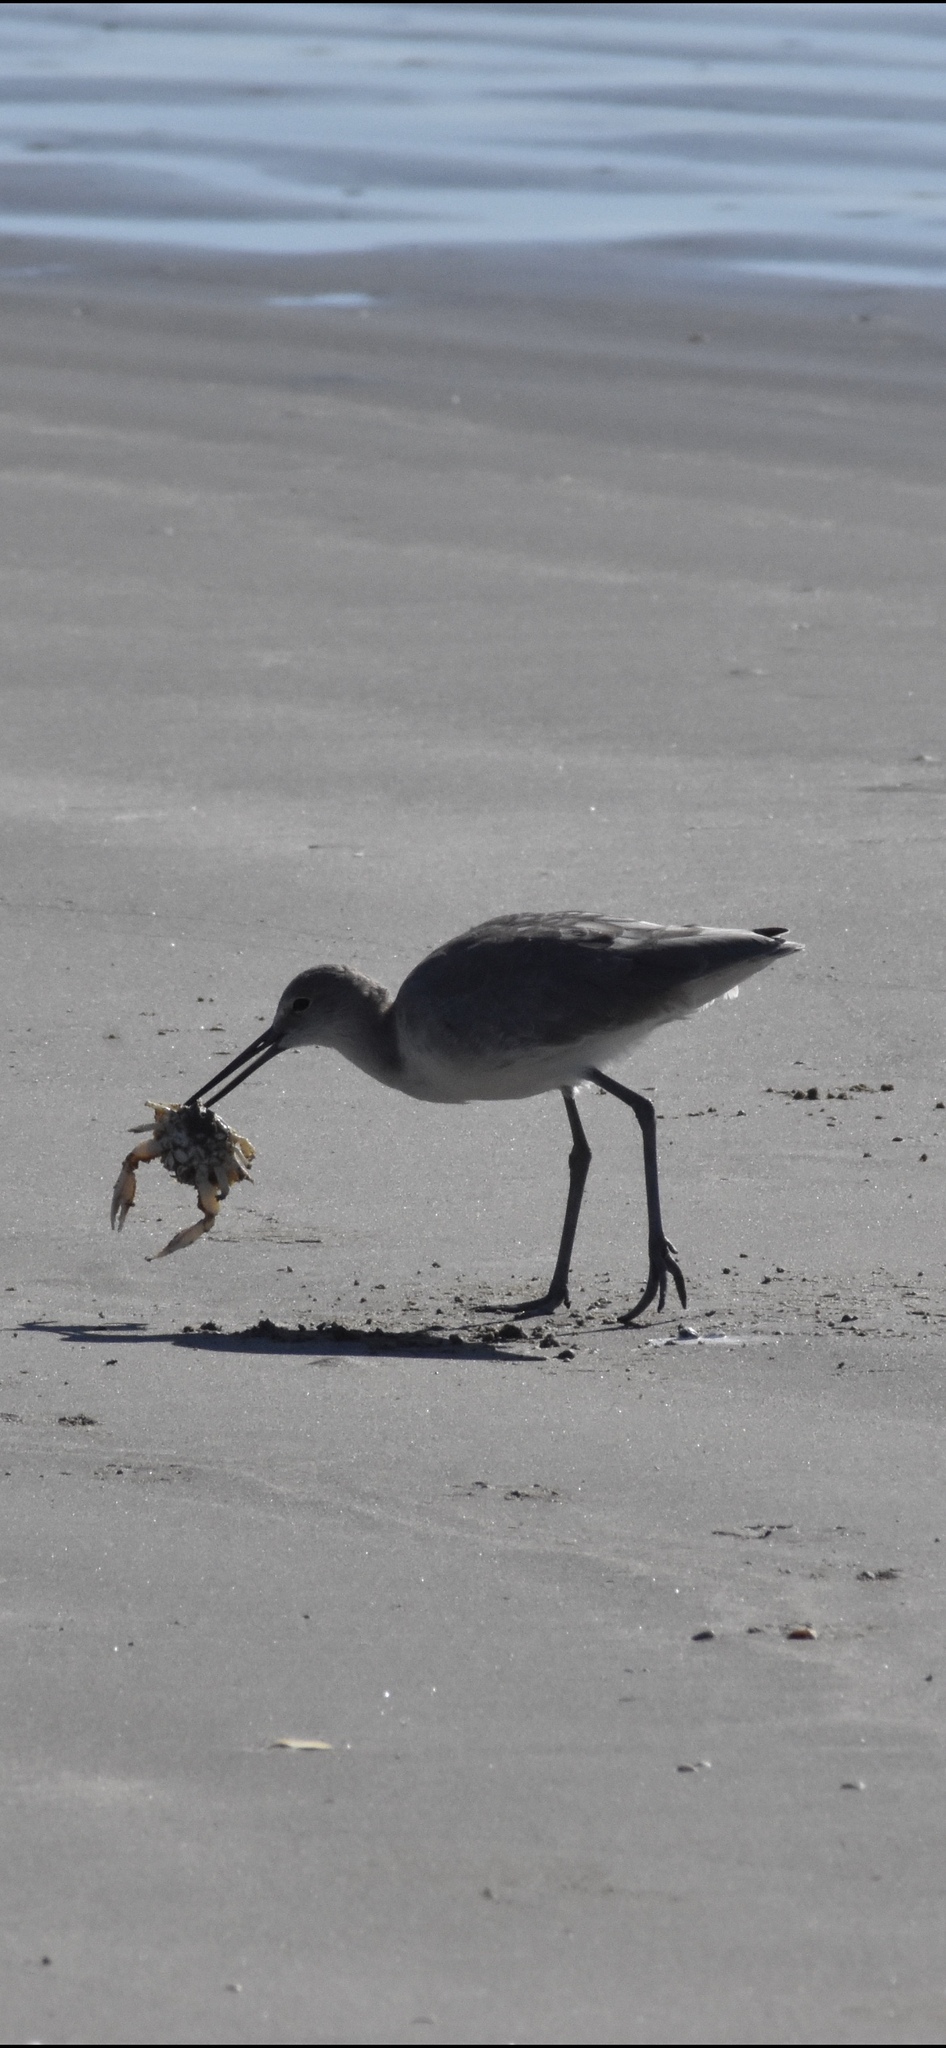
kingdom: Animalia
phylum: Chordata
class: Aves
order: Charadriiformes
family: Scolopacidae
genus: Tringa
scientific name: Tringa semipalmata
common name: Willet
